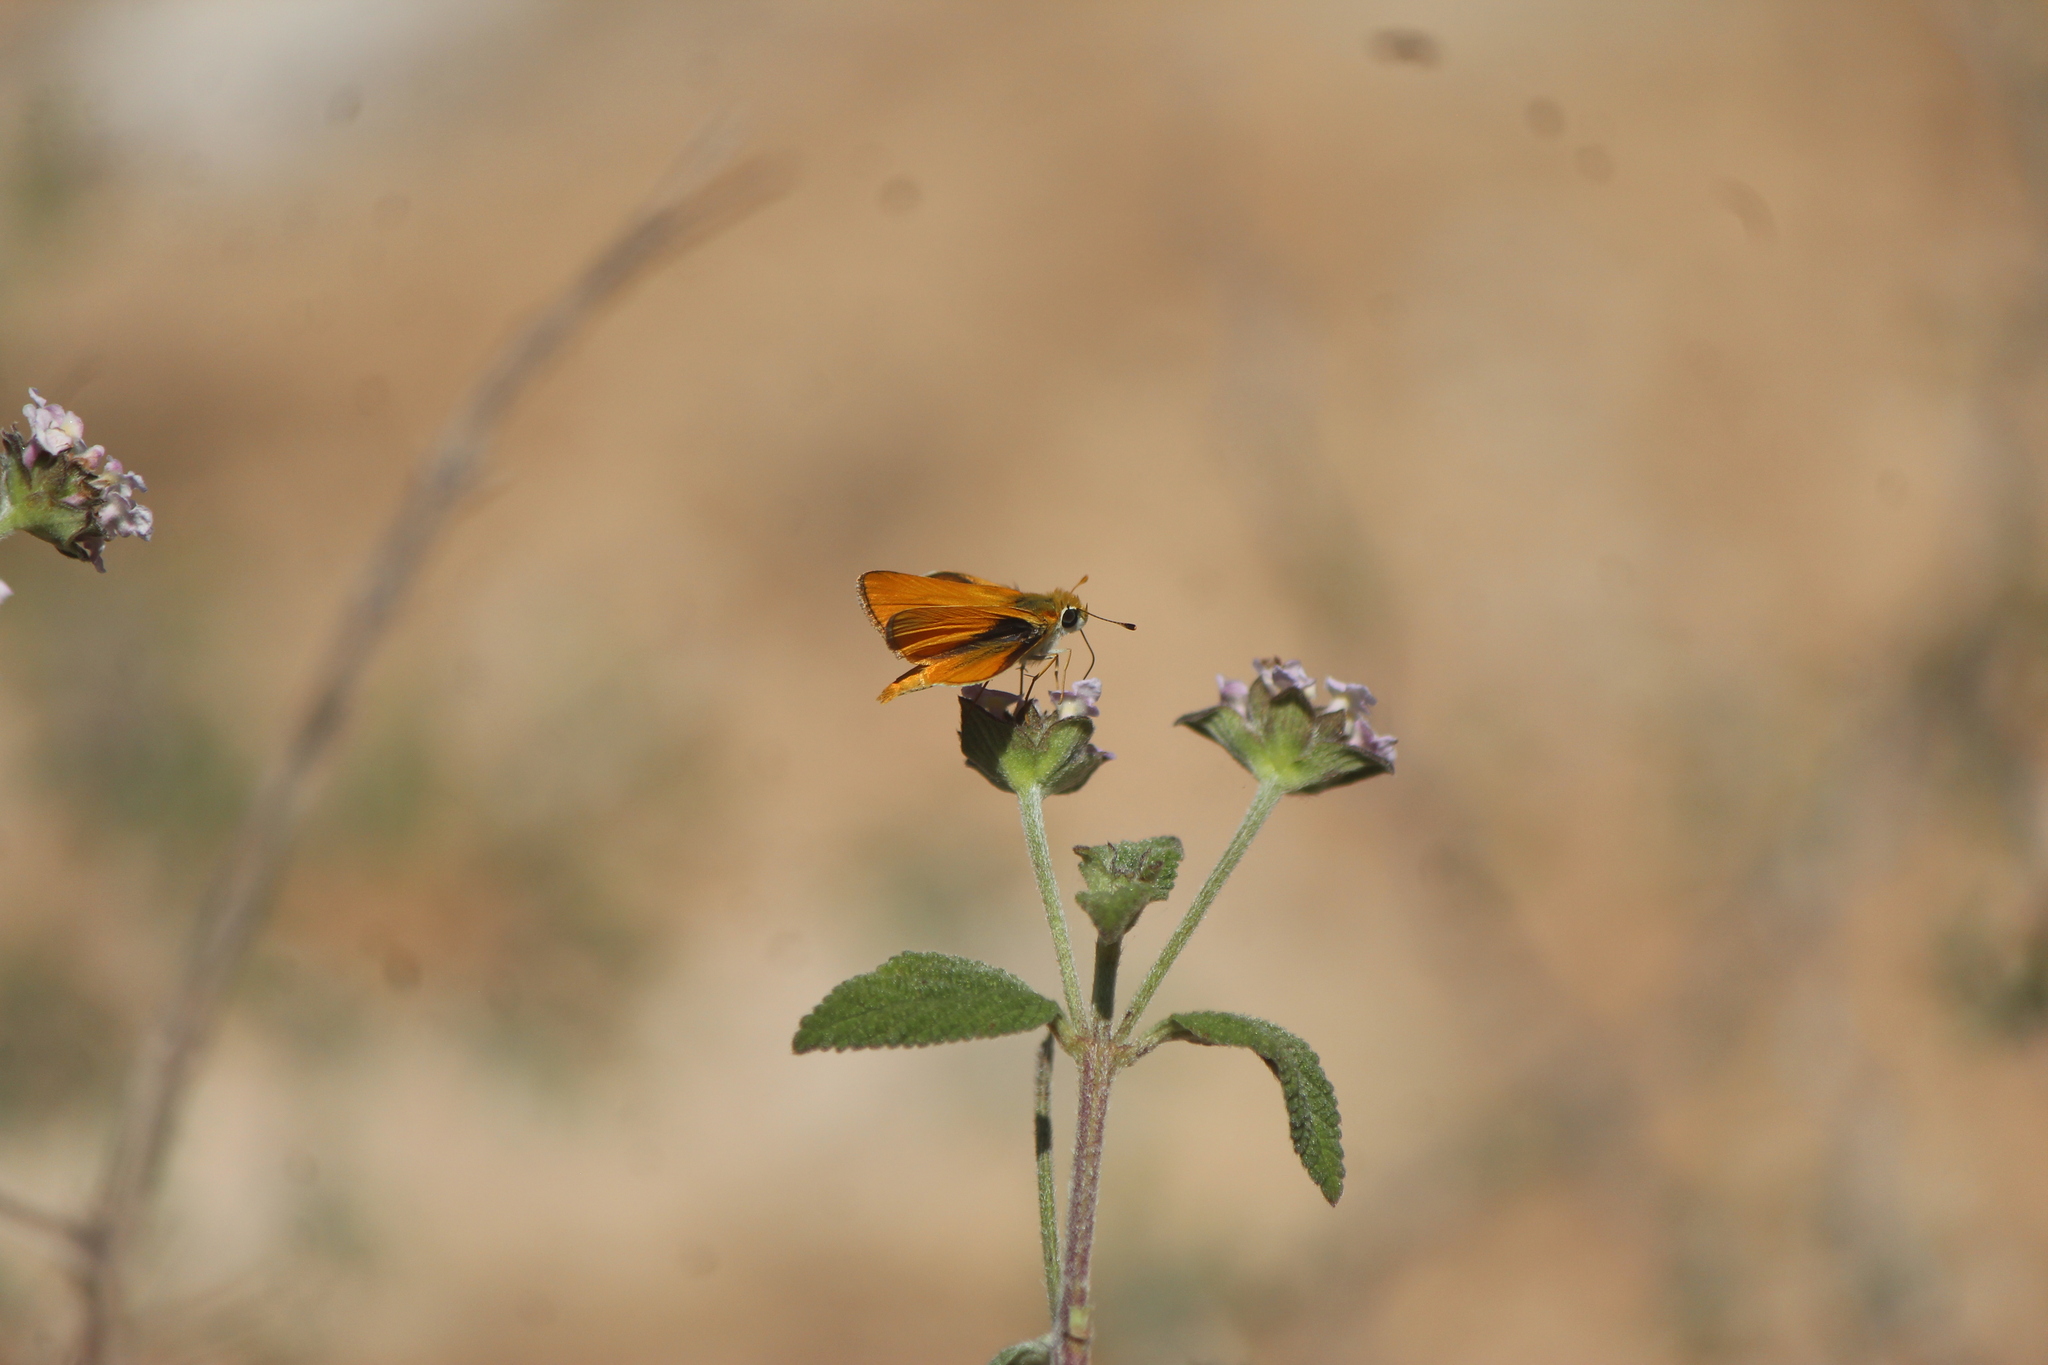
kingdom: Animalia
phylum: Arthropoda
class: Insecta
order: Lepidoptera
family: Hesperiidae
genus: Copaeodes
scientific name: Copaeodes aurantiaca
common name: Orange skipperling
